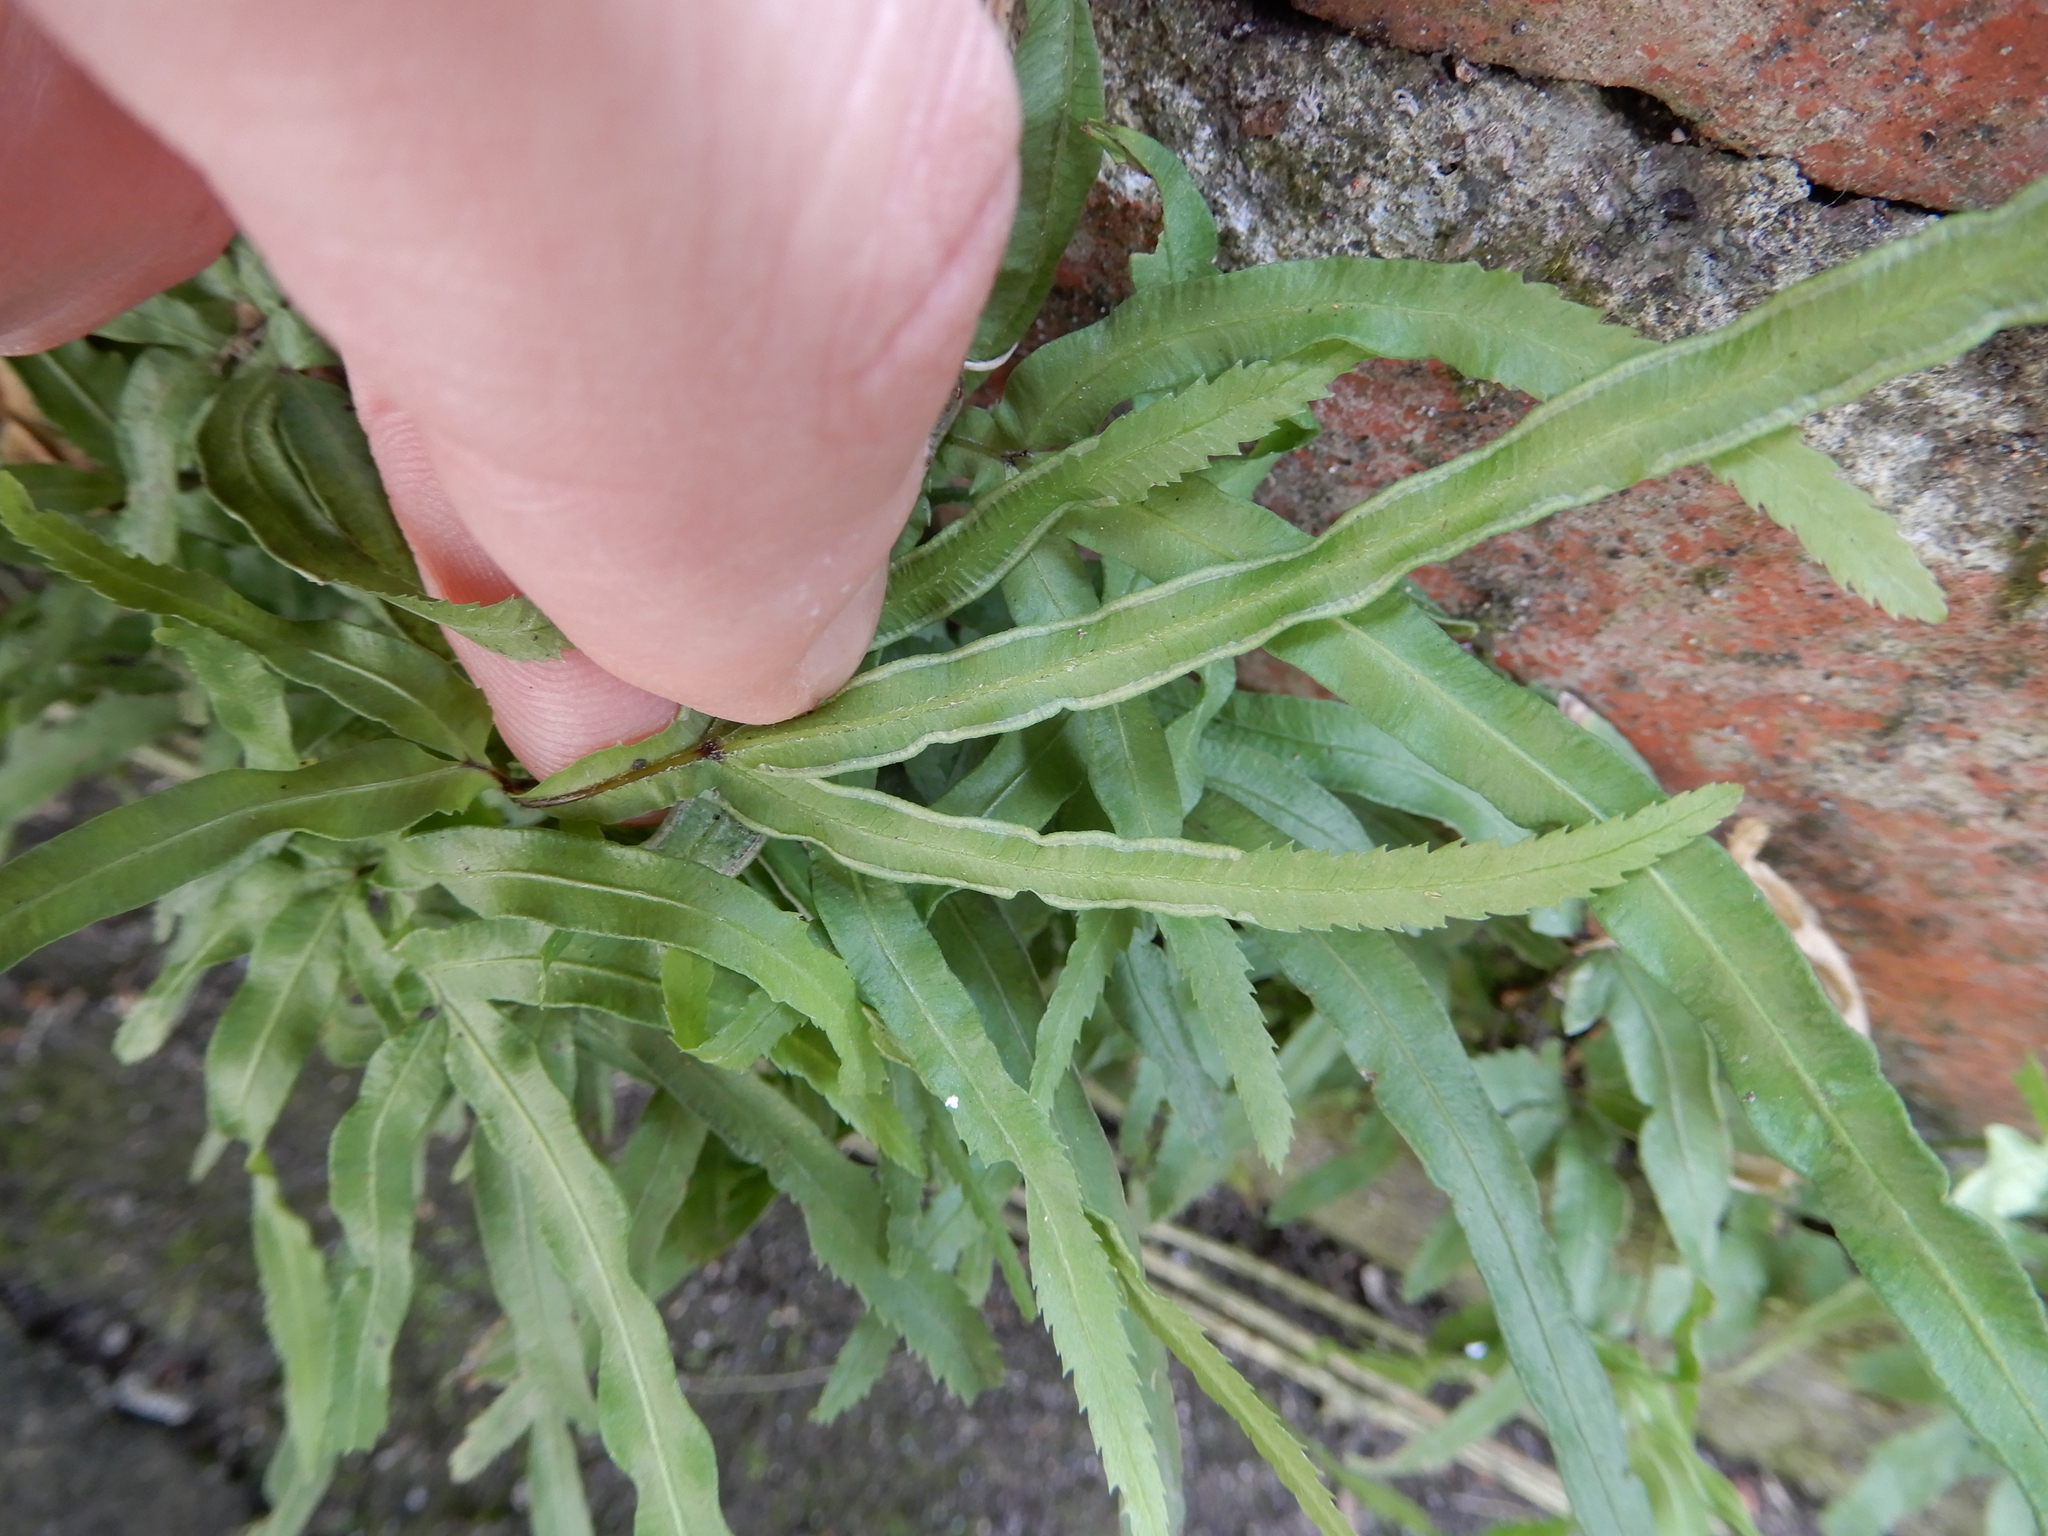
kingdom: Plantae
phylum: Tracheophyta
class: Polypodiopsida
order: Polypodiales
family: Pteridaceae
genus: Pteris
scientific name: Pteris multifida
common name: Spider brake
